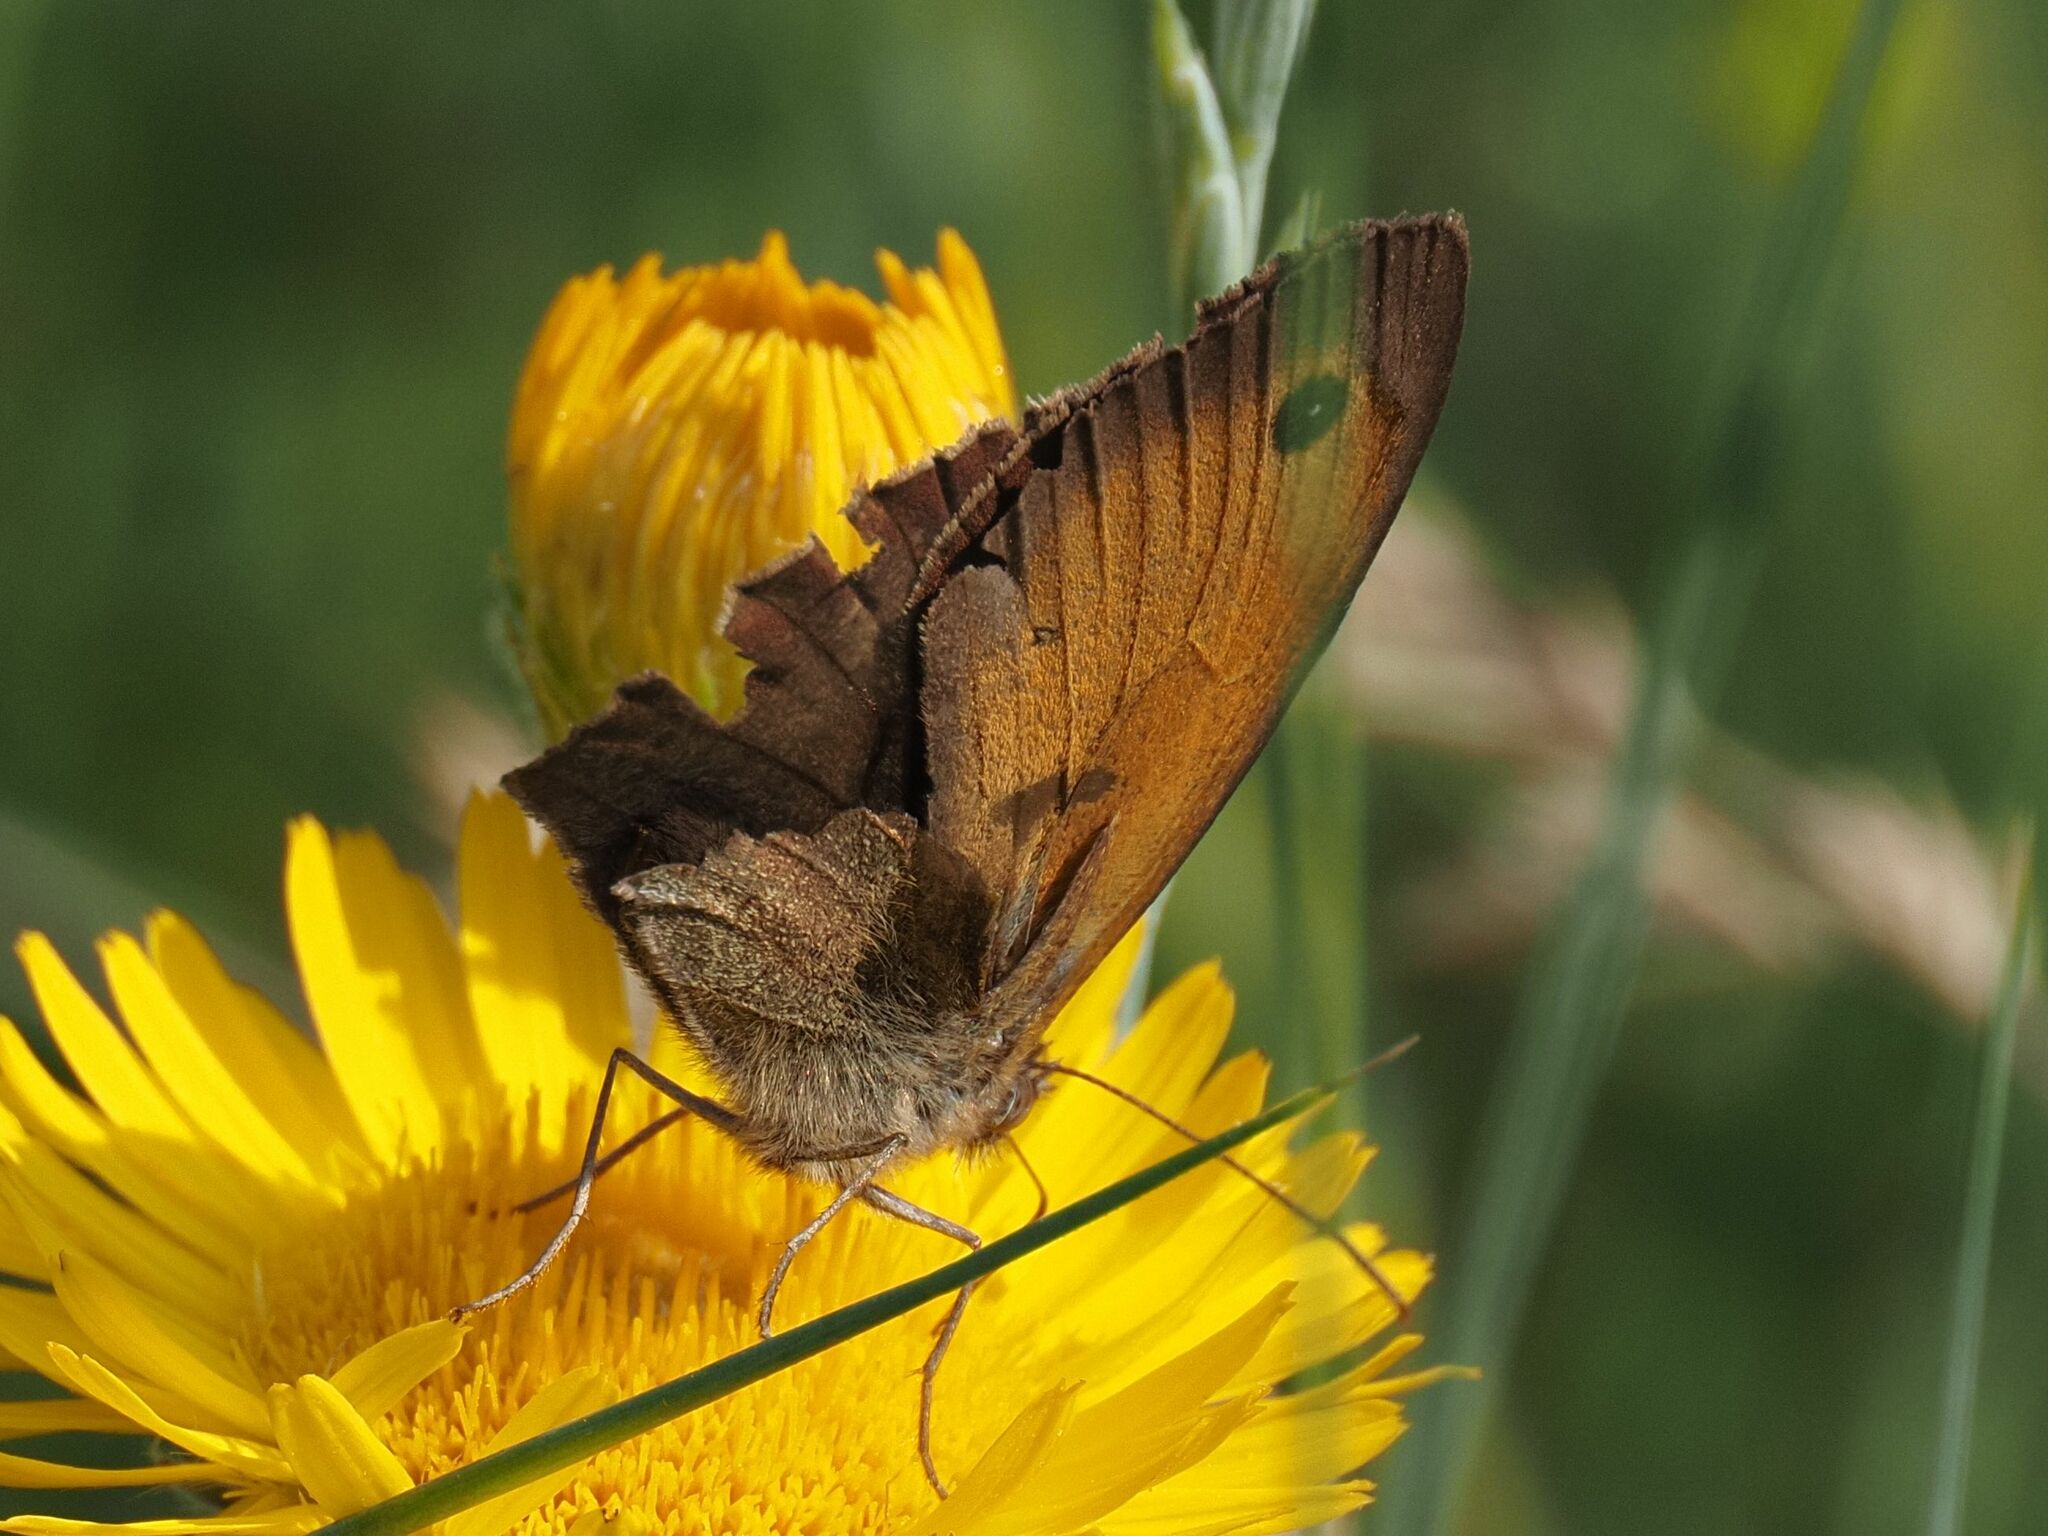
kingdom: Animalia
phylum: Arthropoda
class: Insecta
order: Lepidoptera
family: Nymphalidae
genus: Maniola
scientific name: Maniola jurtina
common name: Meadow brown
